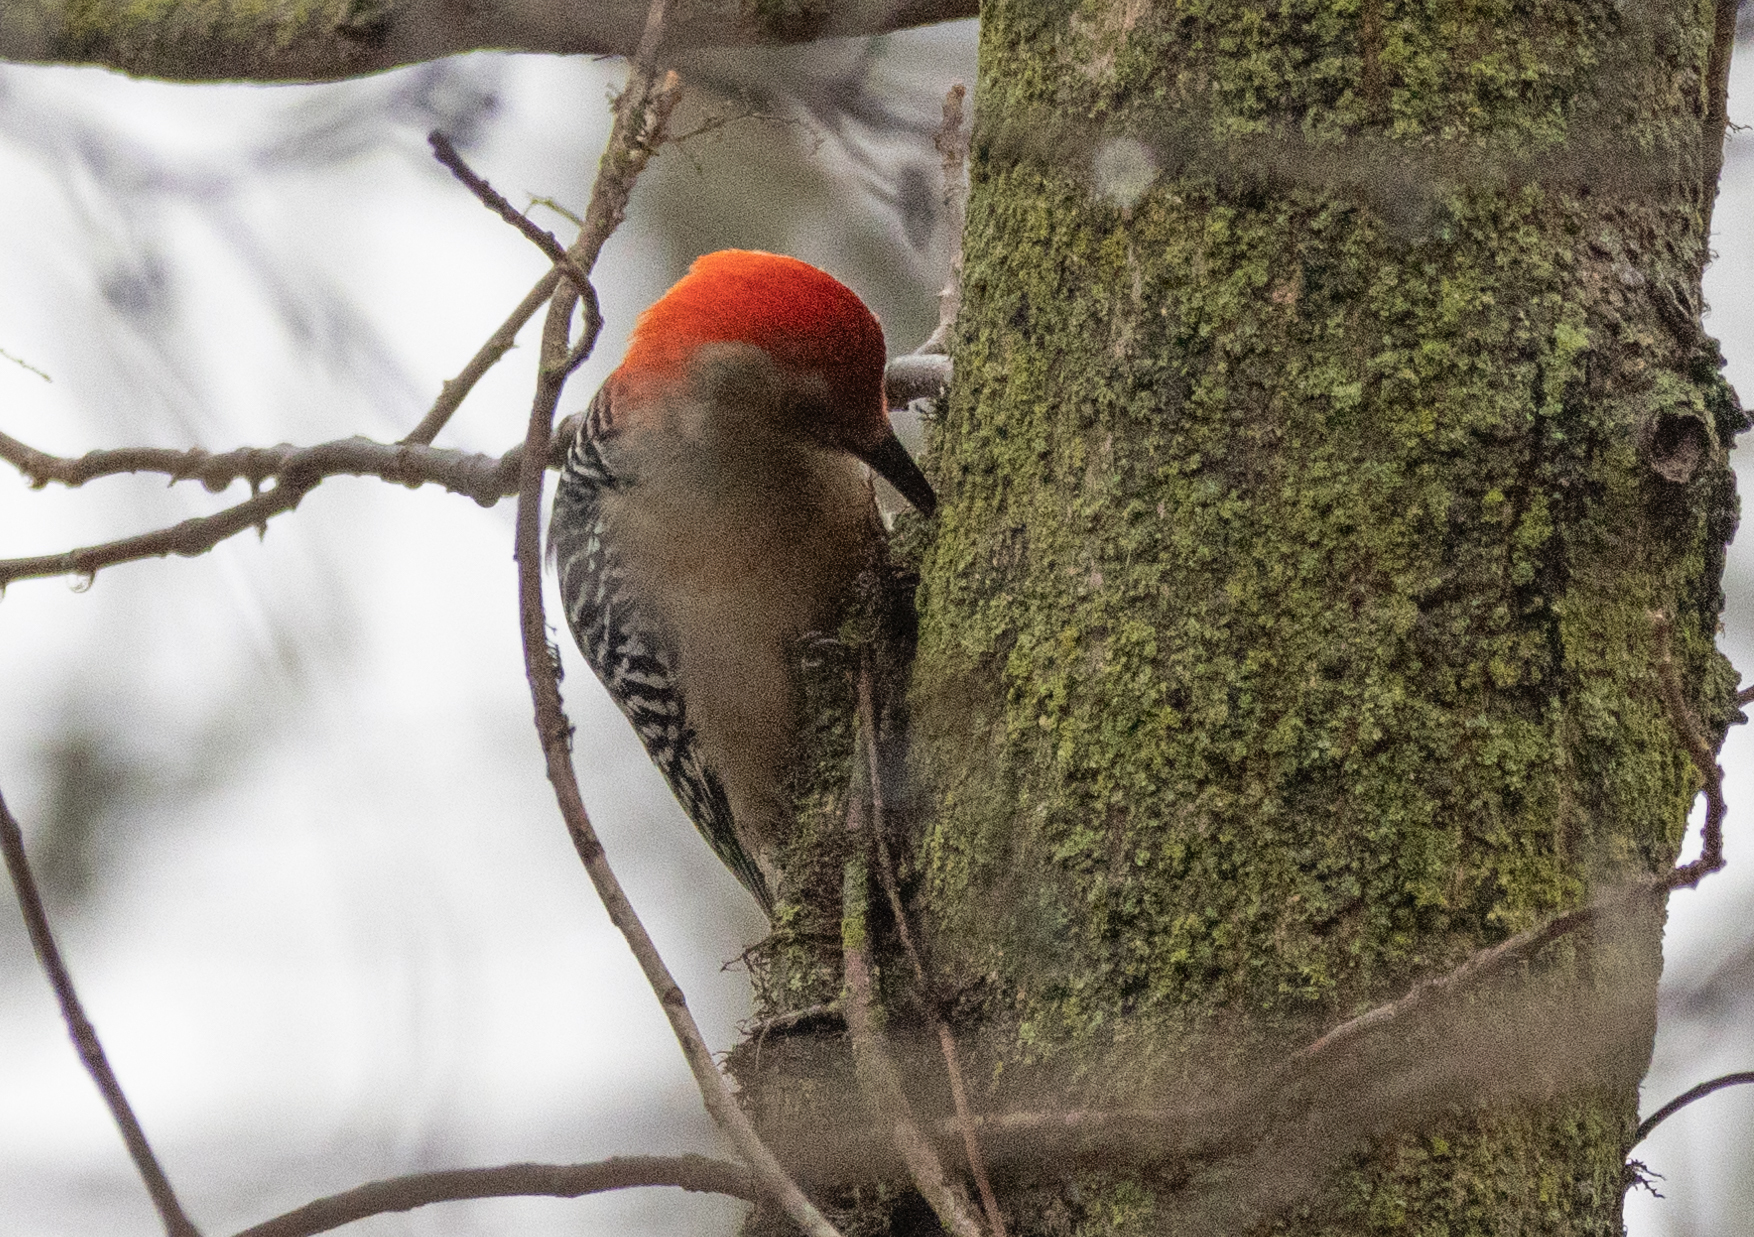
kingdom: Animalia
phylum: Chordata
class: Aves
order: Piciformes
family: Picidae
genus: Melanerpes
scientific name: Melanerpes carolinus
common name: Red-bellied woodpecker
